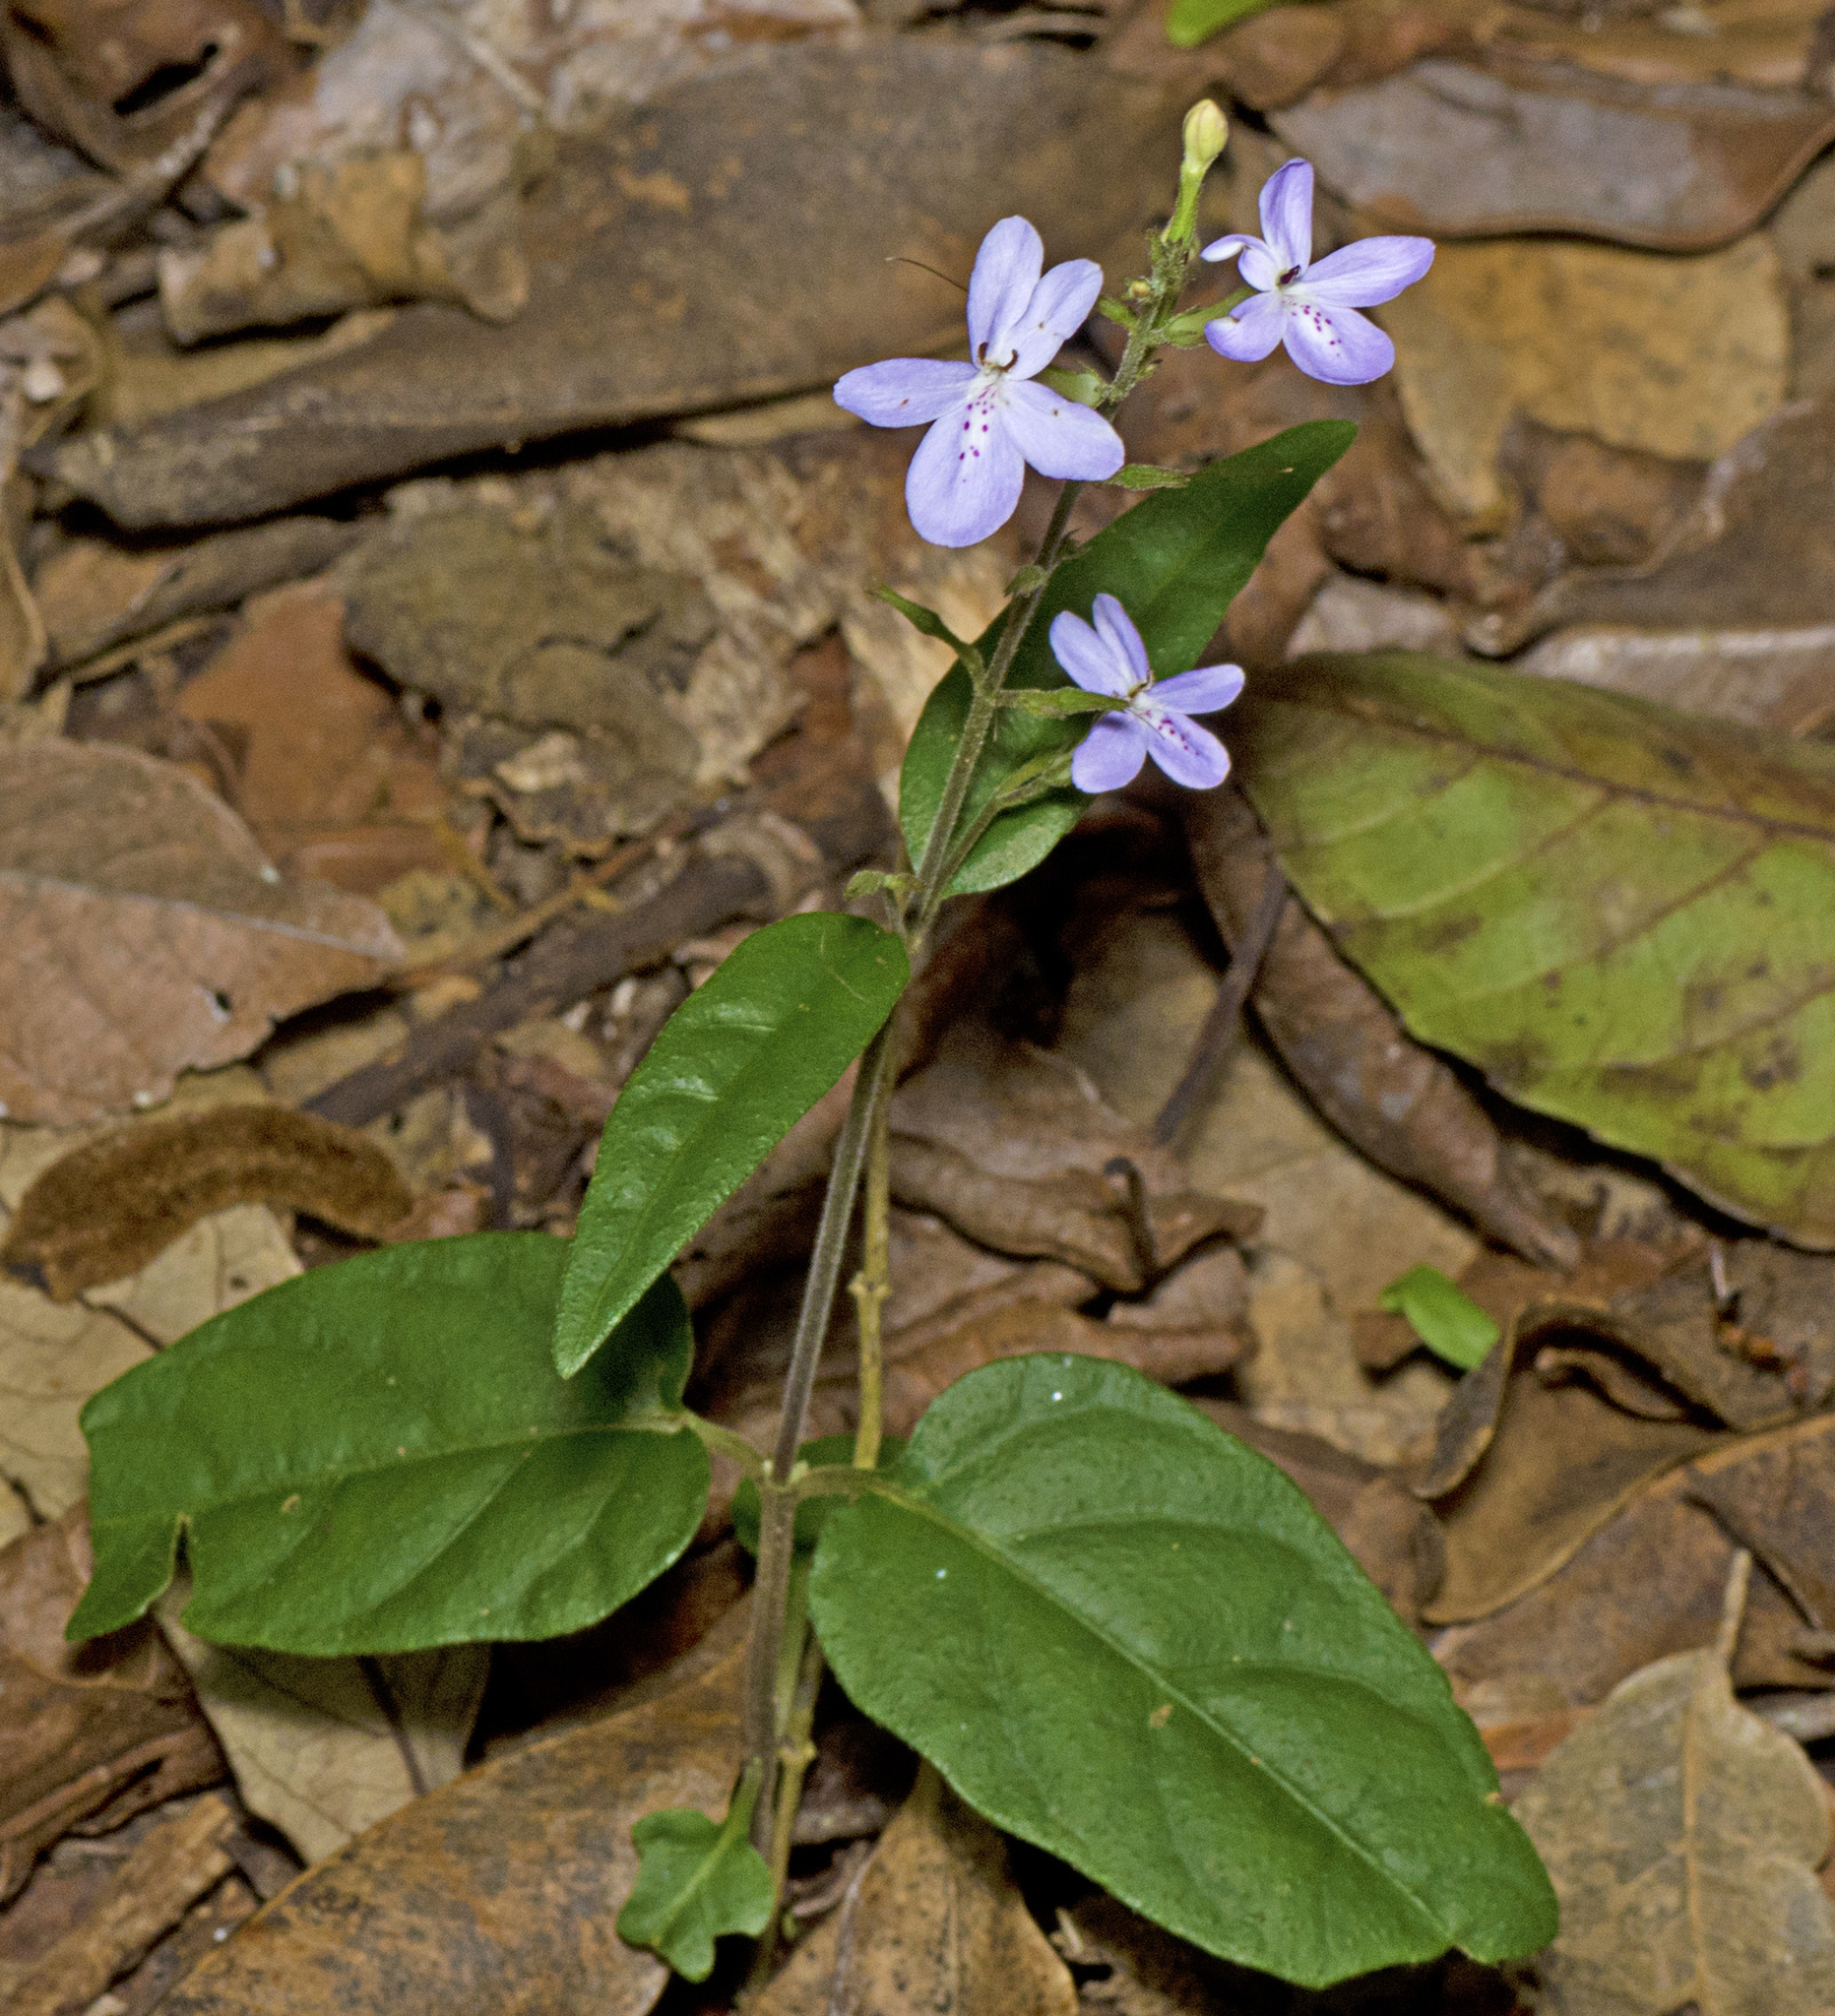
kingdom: Plantae
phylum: Tracheophyta
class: Magnoliopsida
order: Lamiales
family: Acanthaceae
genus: Pseuderanthemum
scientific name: Pseuderanthemum variabile
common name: Night and afternoon
